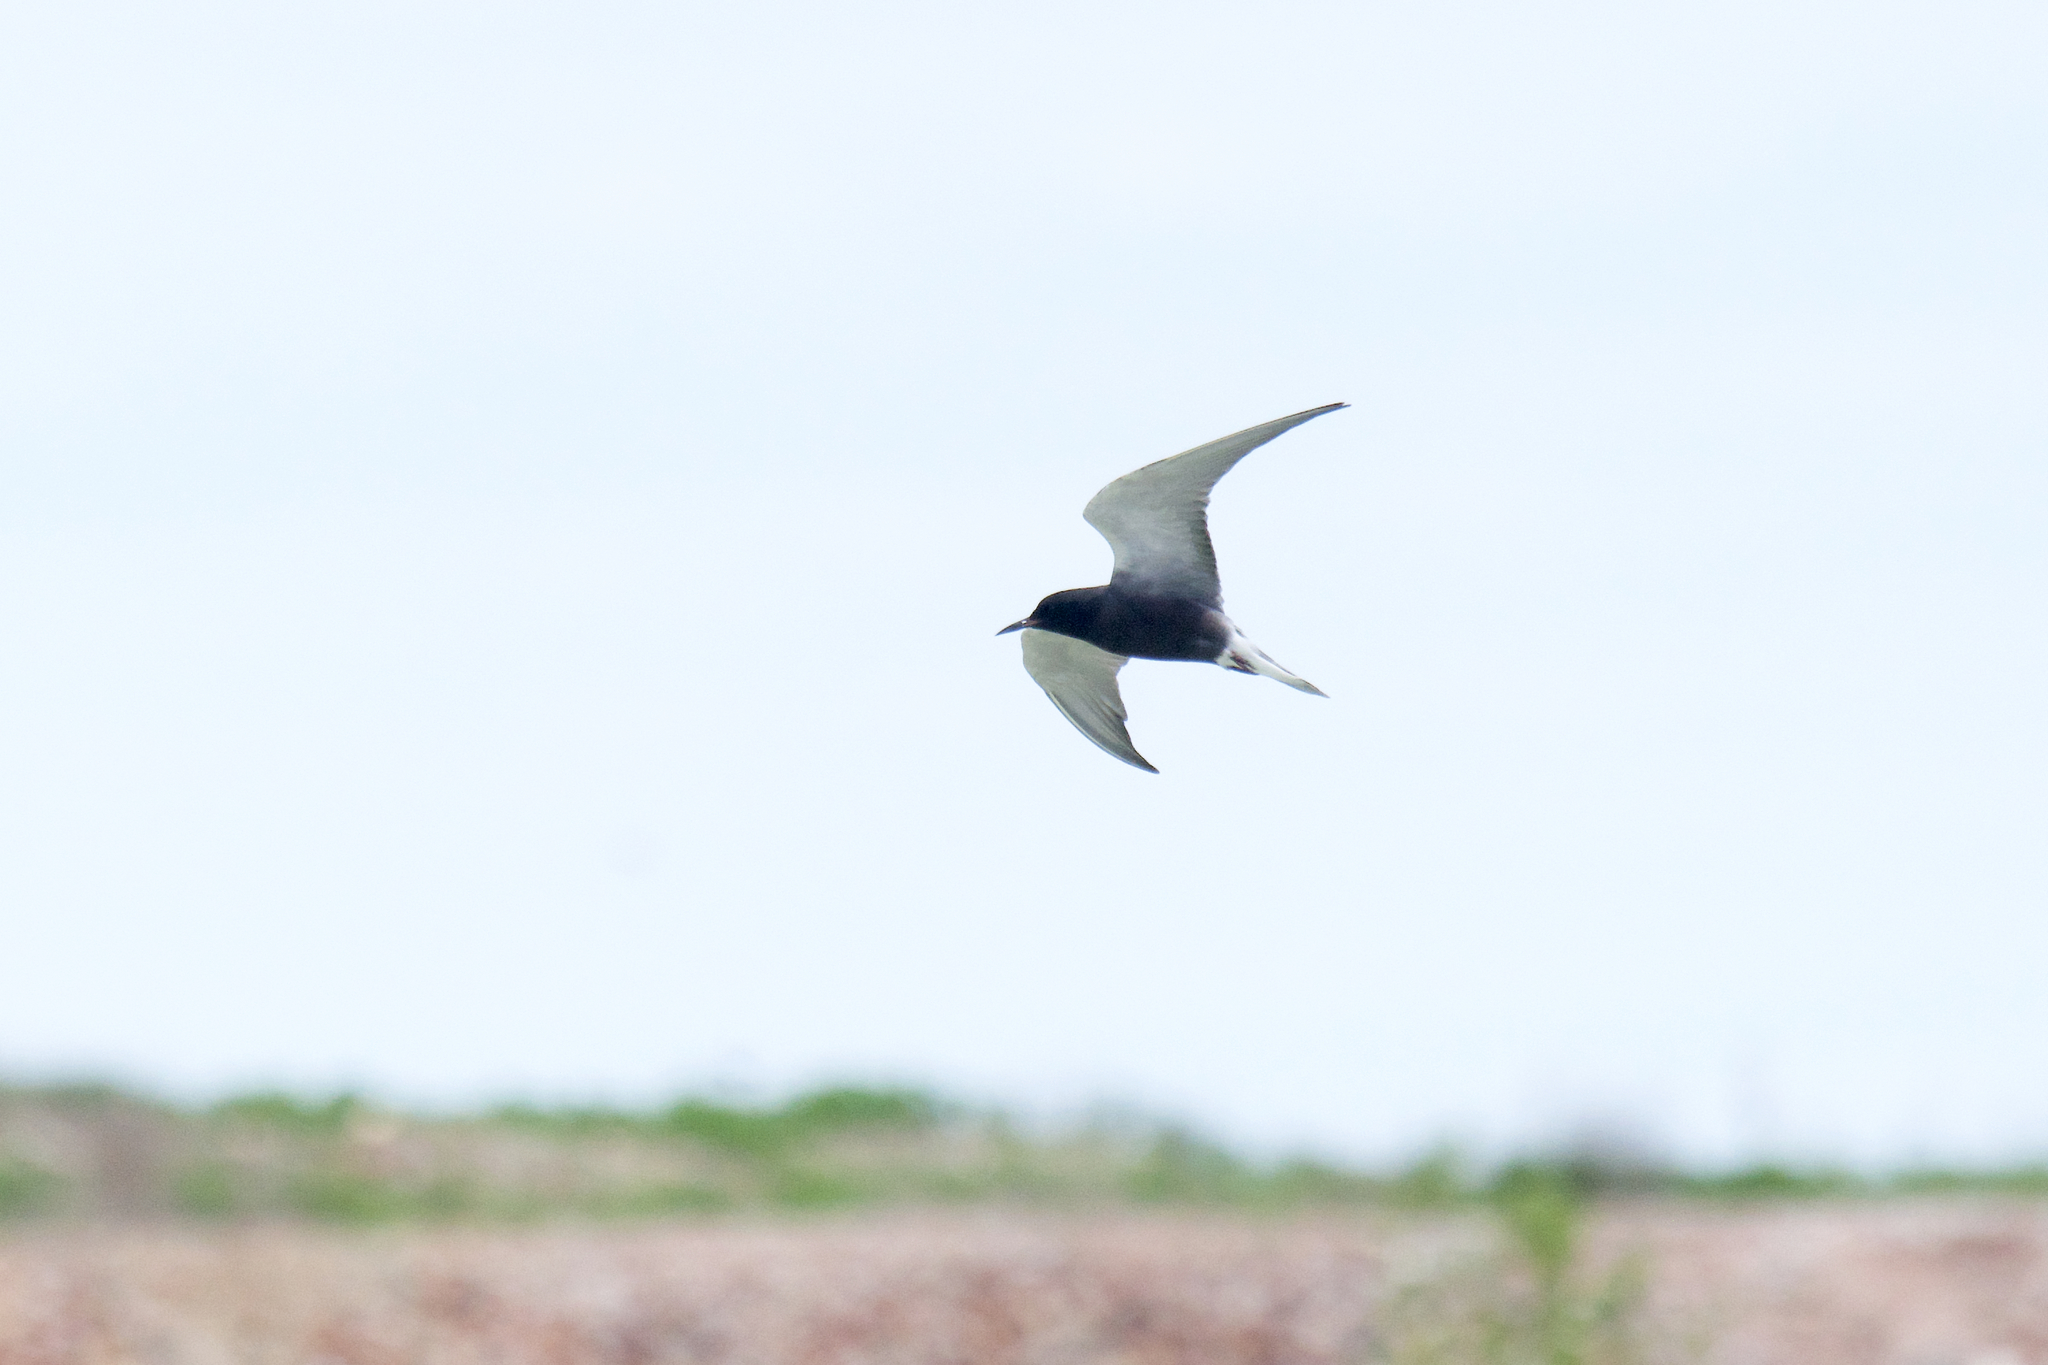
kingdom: Animalia
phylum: Chordata
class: Aves
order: Charadriiformes
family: Laridae
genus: Chlidonias
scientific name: Chlidonias niger
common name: Black tern
